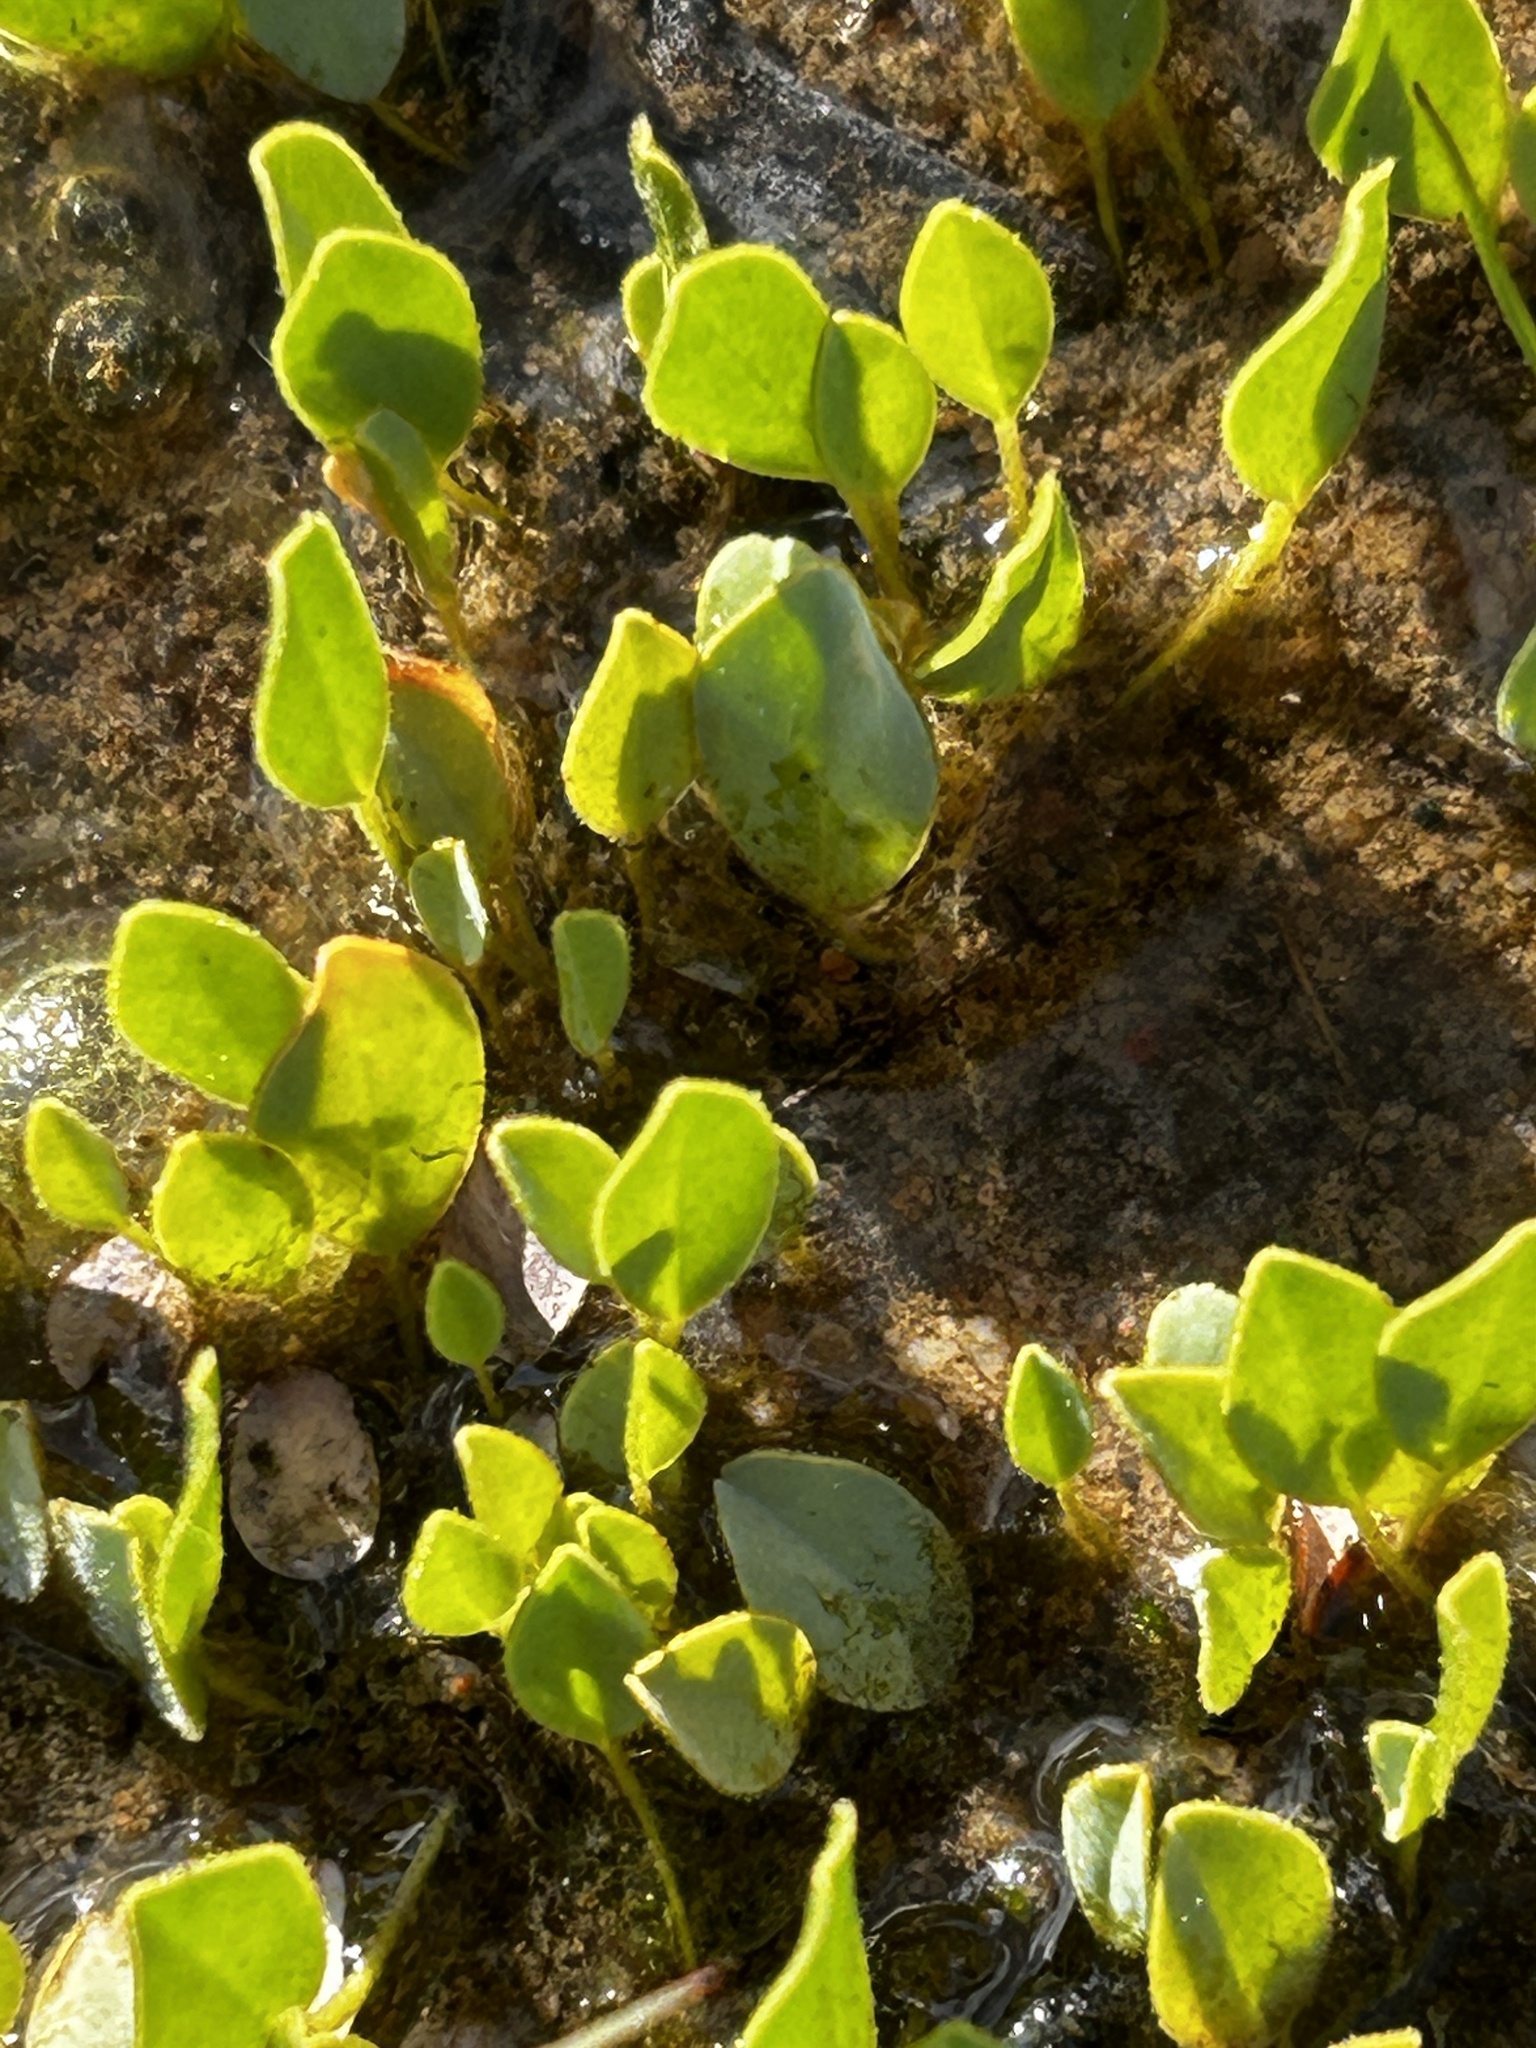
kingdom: Plantae
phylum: Tracheophyta
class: Magnoliopsida
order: Oxalidales
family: Oxalidaceae
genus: Oxalis
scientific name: Oxalis monophylla
